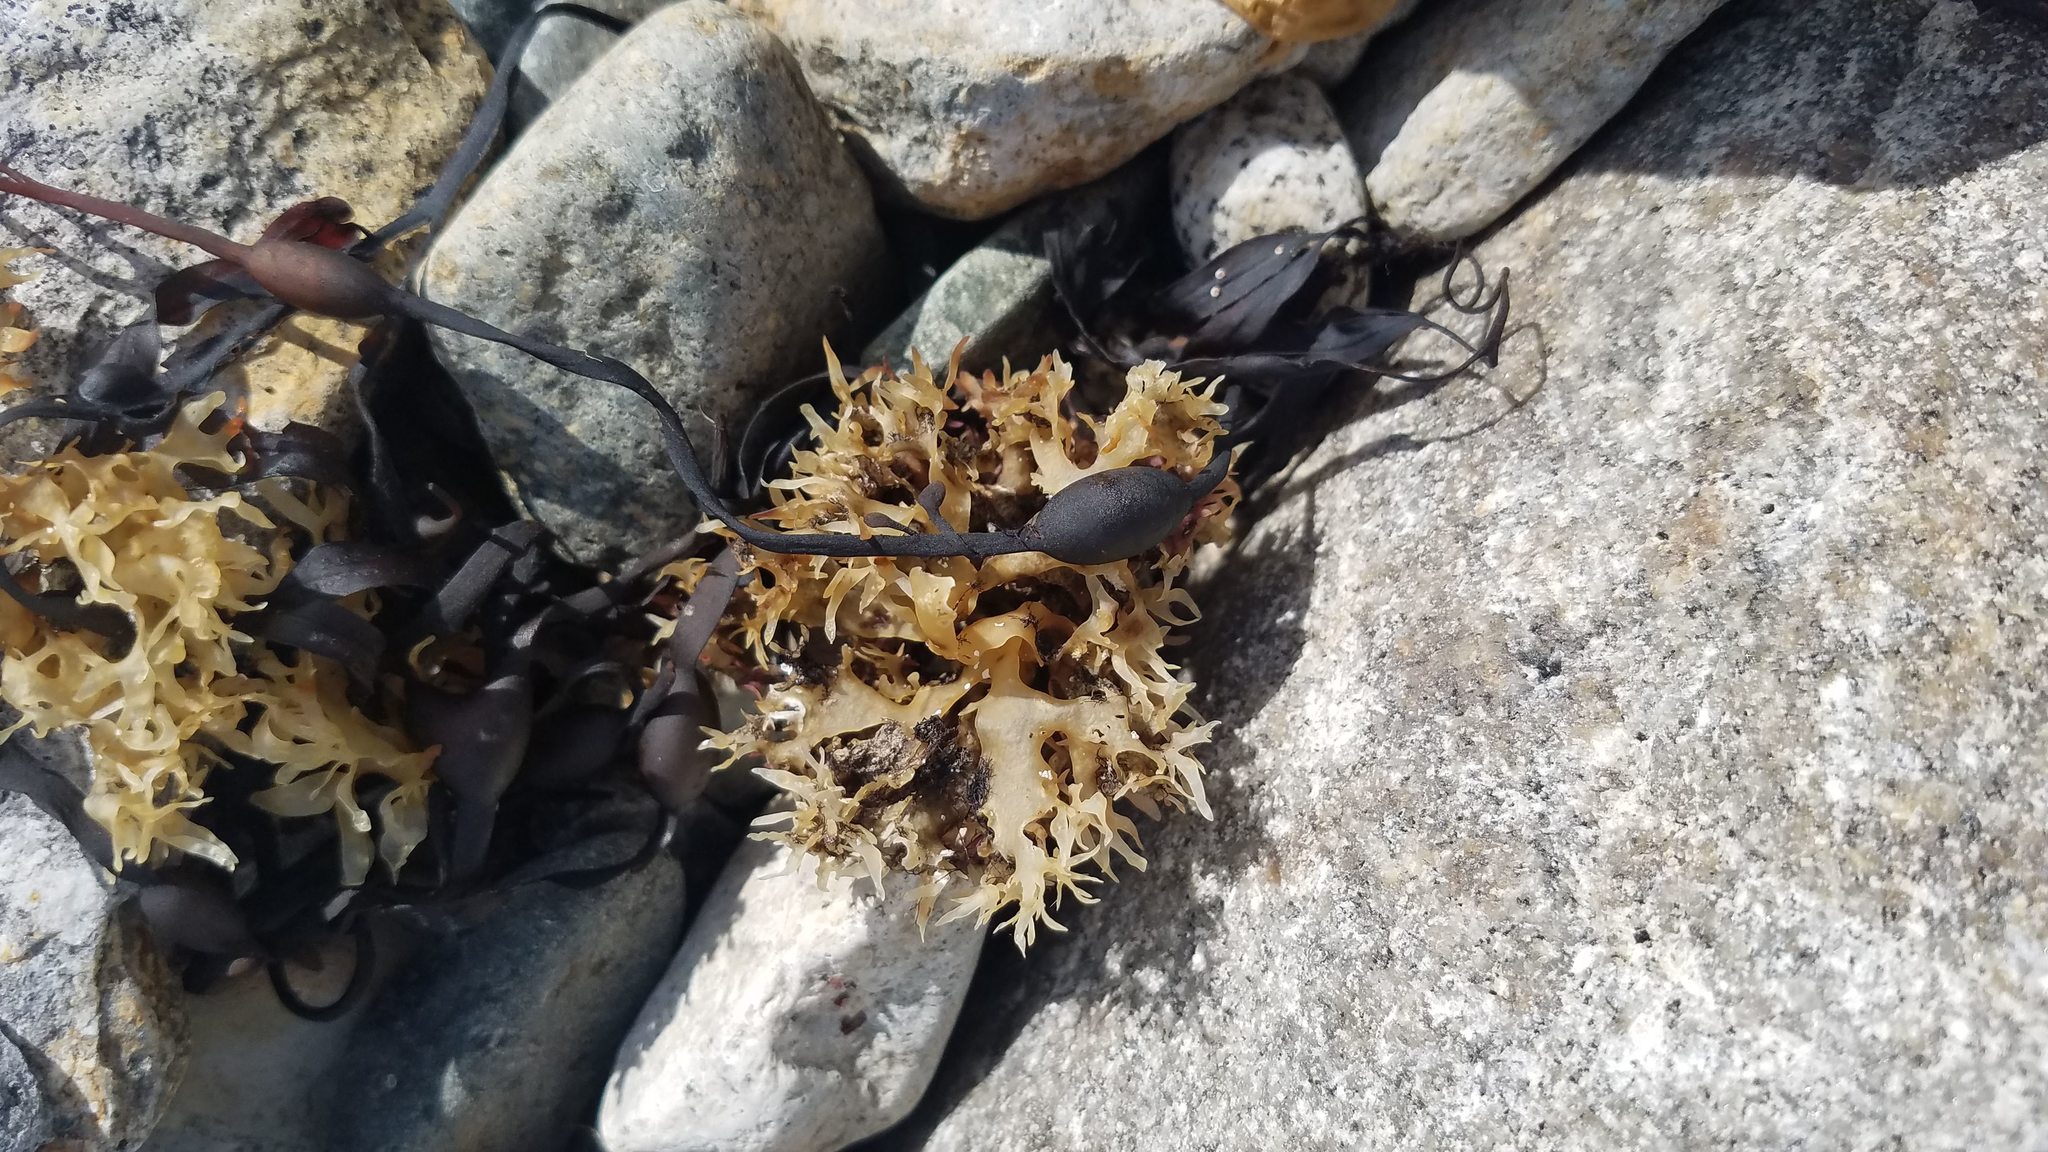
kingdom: Plantae
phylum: Rhodophyta
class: Florideophyceae
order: Gigartinales
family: Gigartinaceae
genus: Chondrus
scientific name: Chondrus crispus
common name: Carrageen
